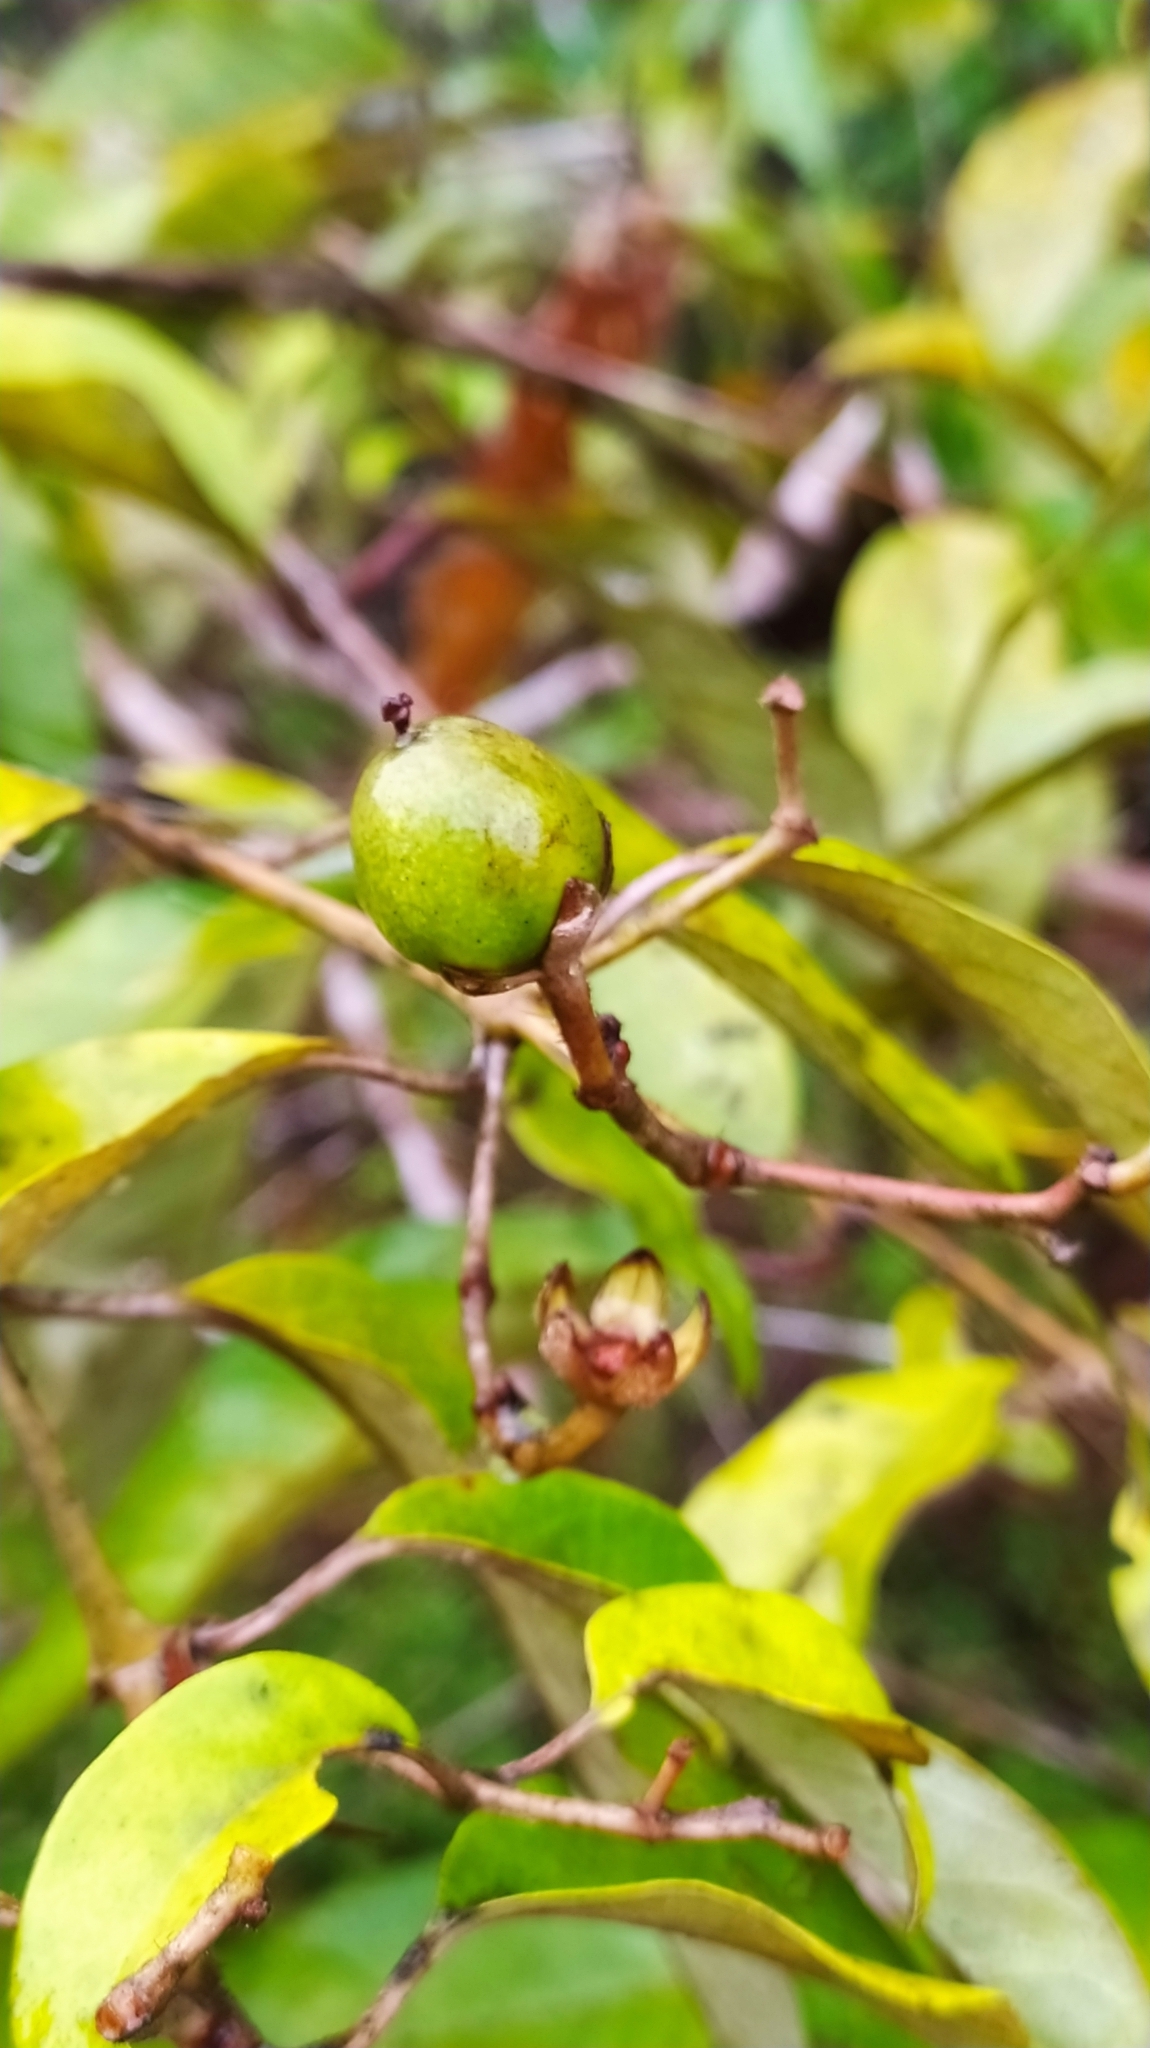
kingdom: Plantae
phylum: Tracheophyta
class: Magnoliopsida
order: Malpighiales
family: Hypericaceae
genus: Vismia
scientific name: Vismia guianensis
